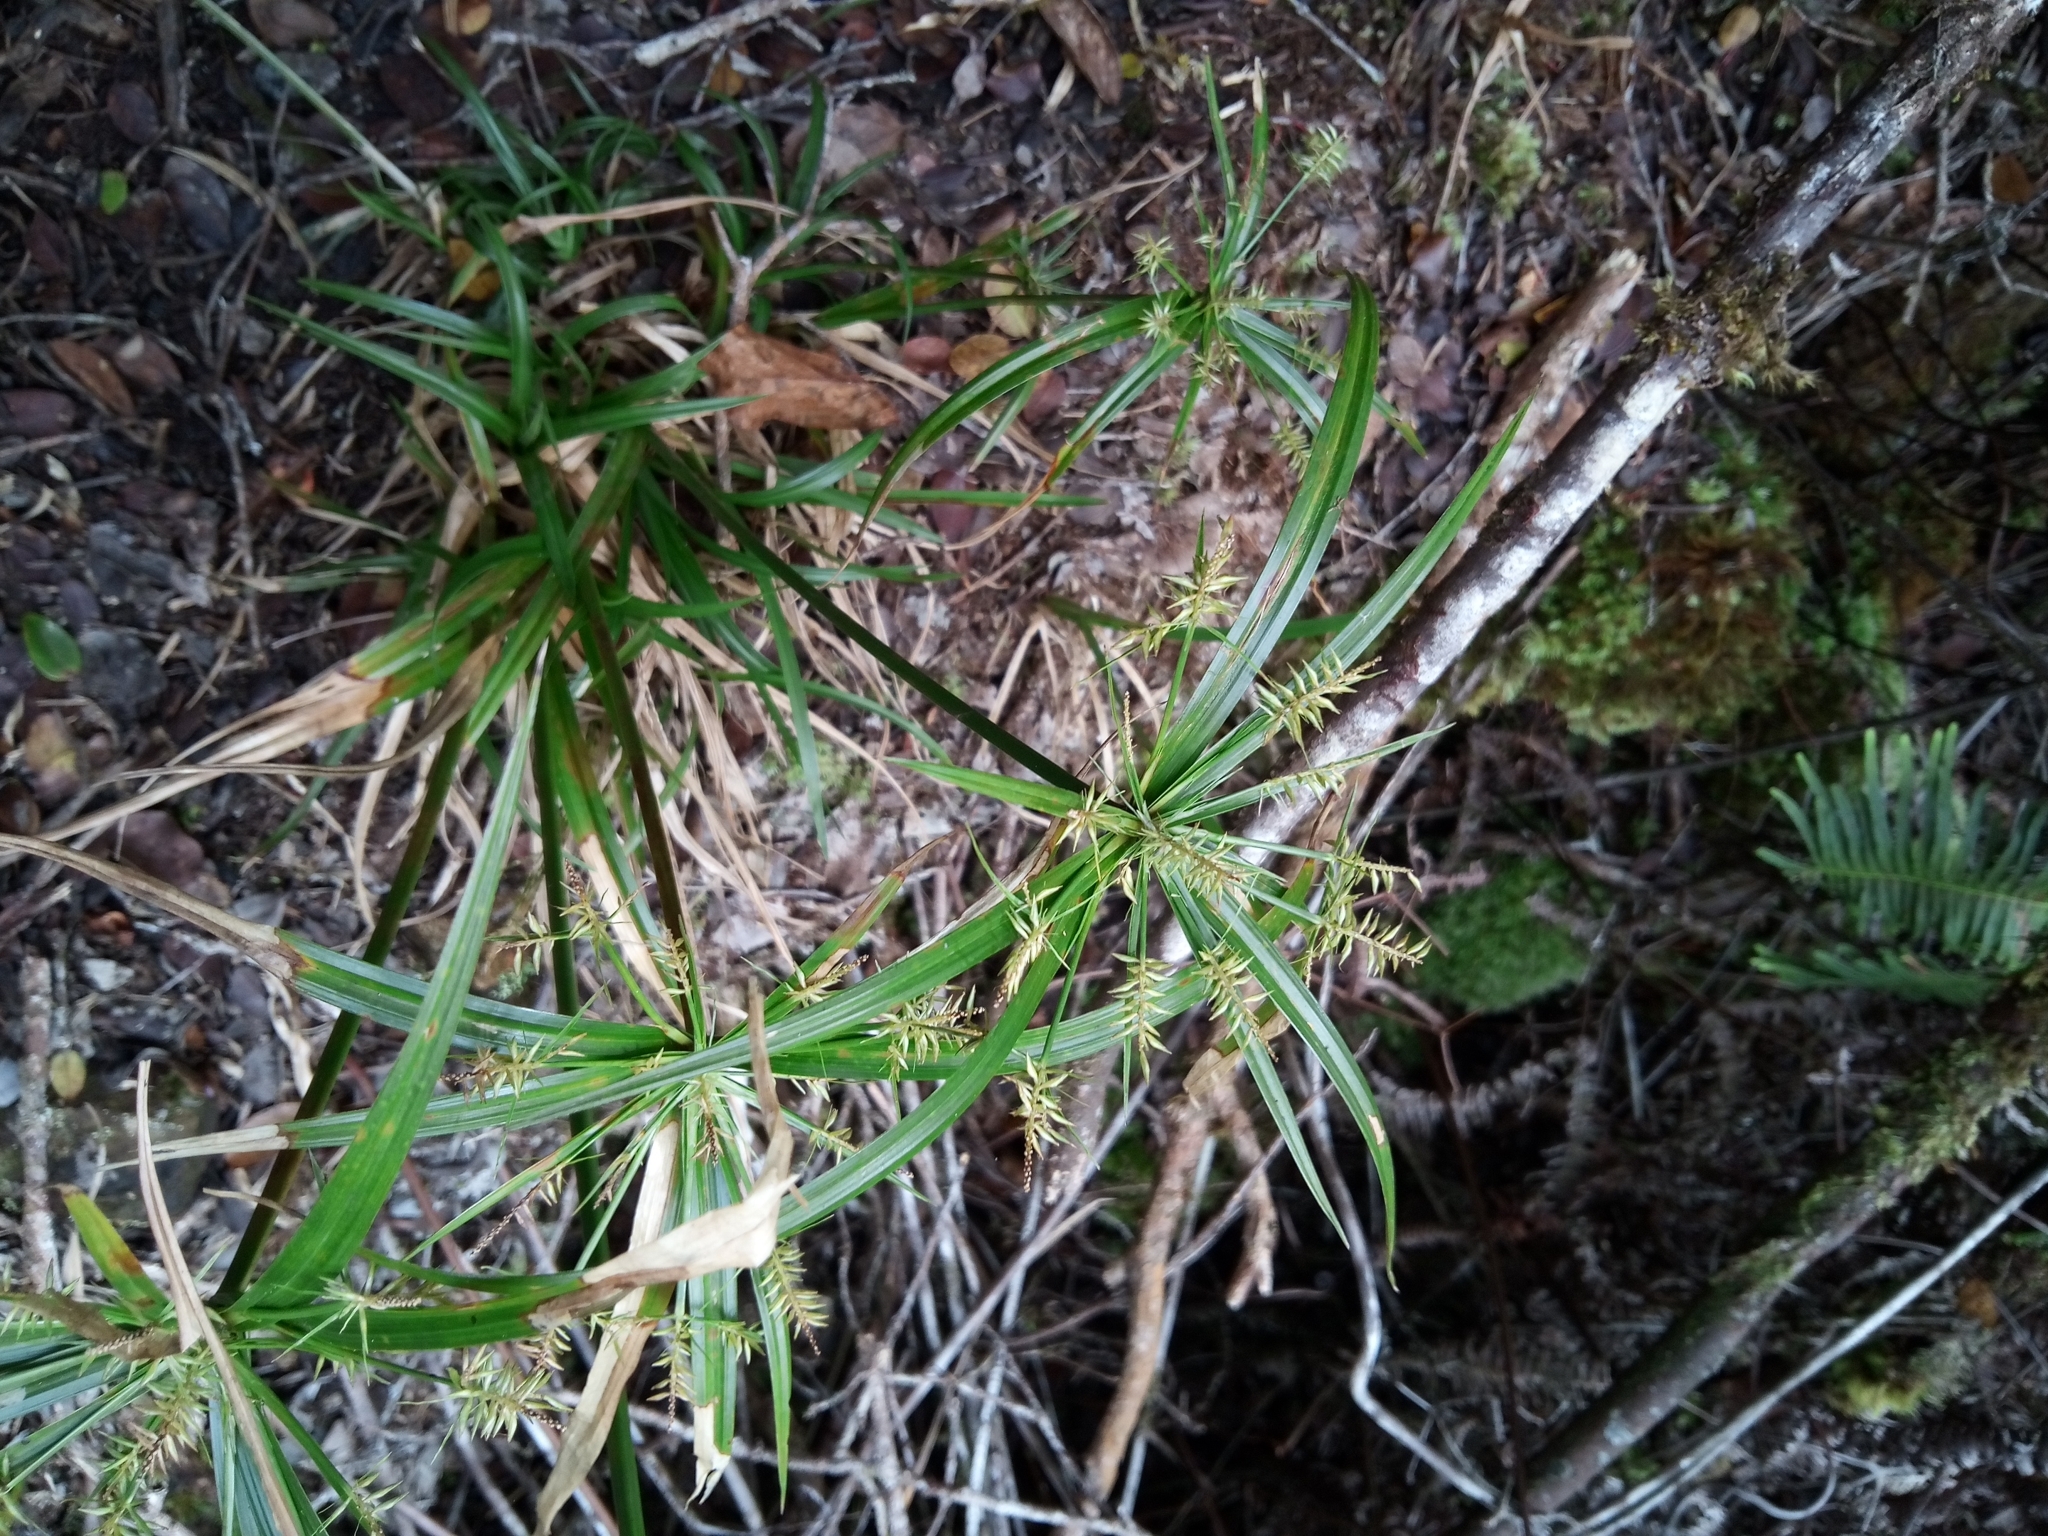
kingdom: Plantae
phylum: Tracheophyta
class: Liliopsida
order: Poales
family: Cyperaceae
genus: Cyperus
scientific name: Cyperus meyenianus
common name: Meyen's flatsedge
